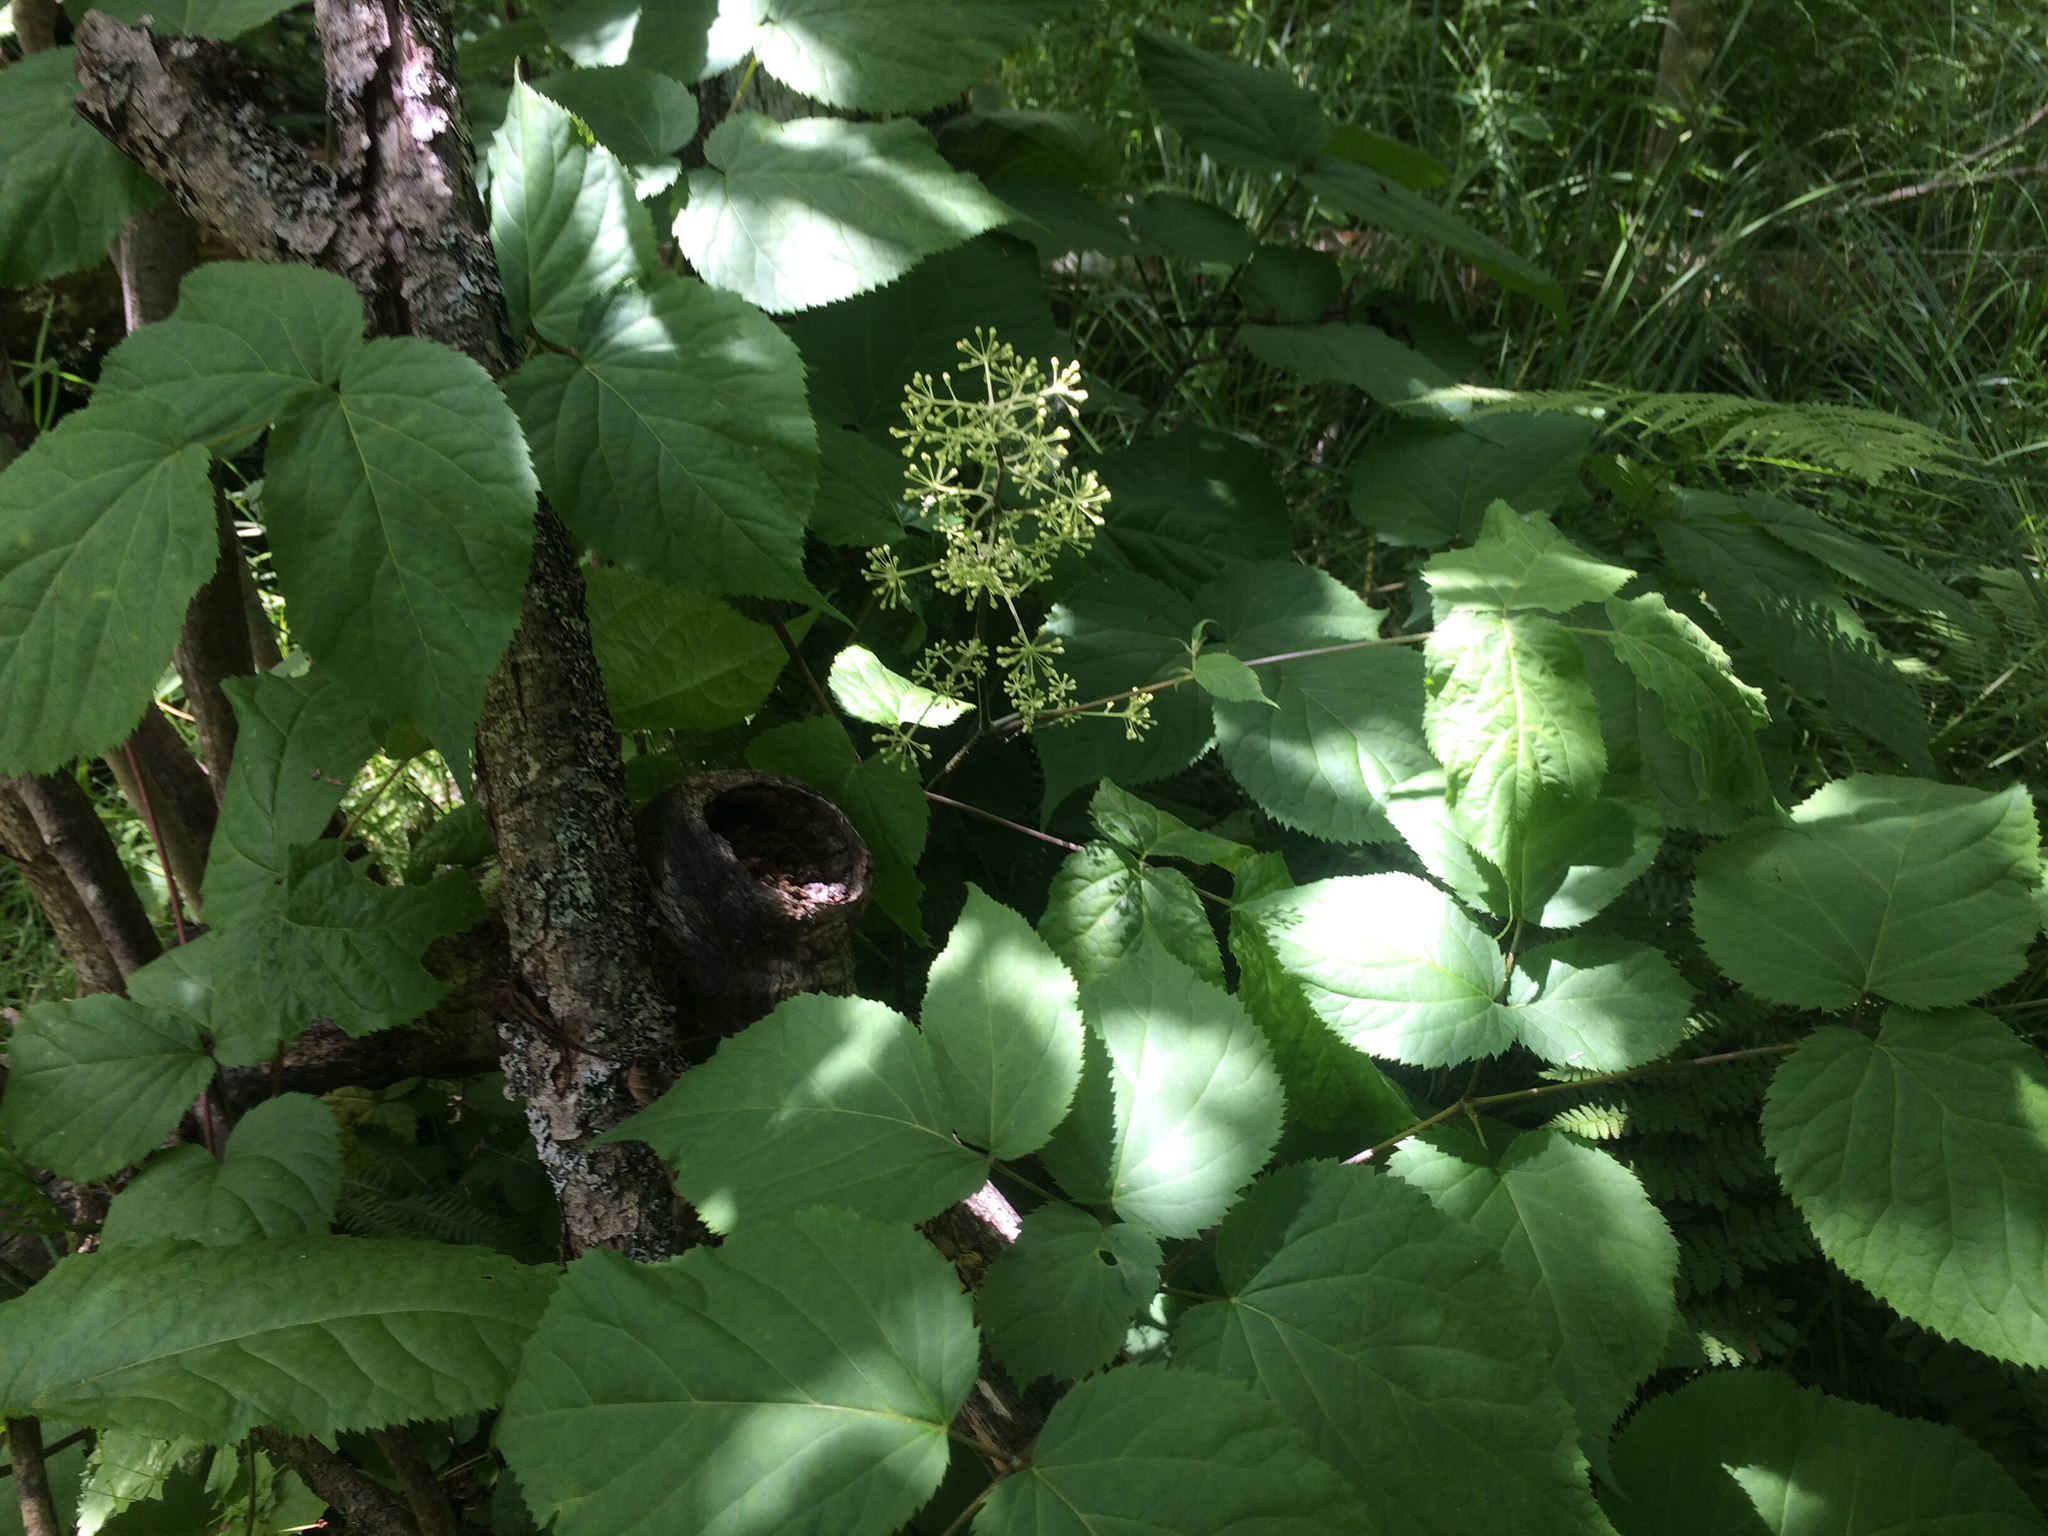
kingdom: Plantae
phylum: Tracheophyta
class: Magnoliopsida
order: Apiales
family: Araliaceae
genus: Aralia
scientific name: Aralia racemosa
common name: American-spikenard
